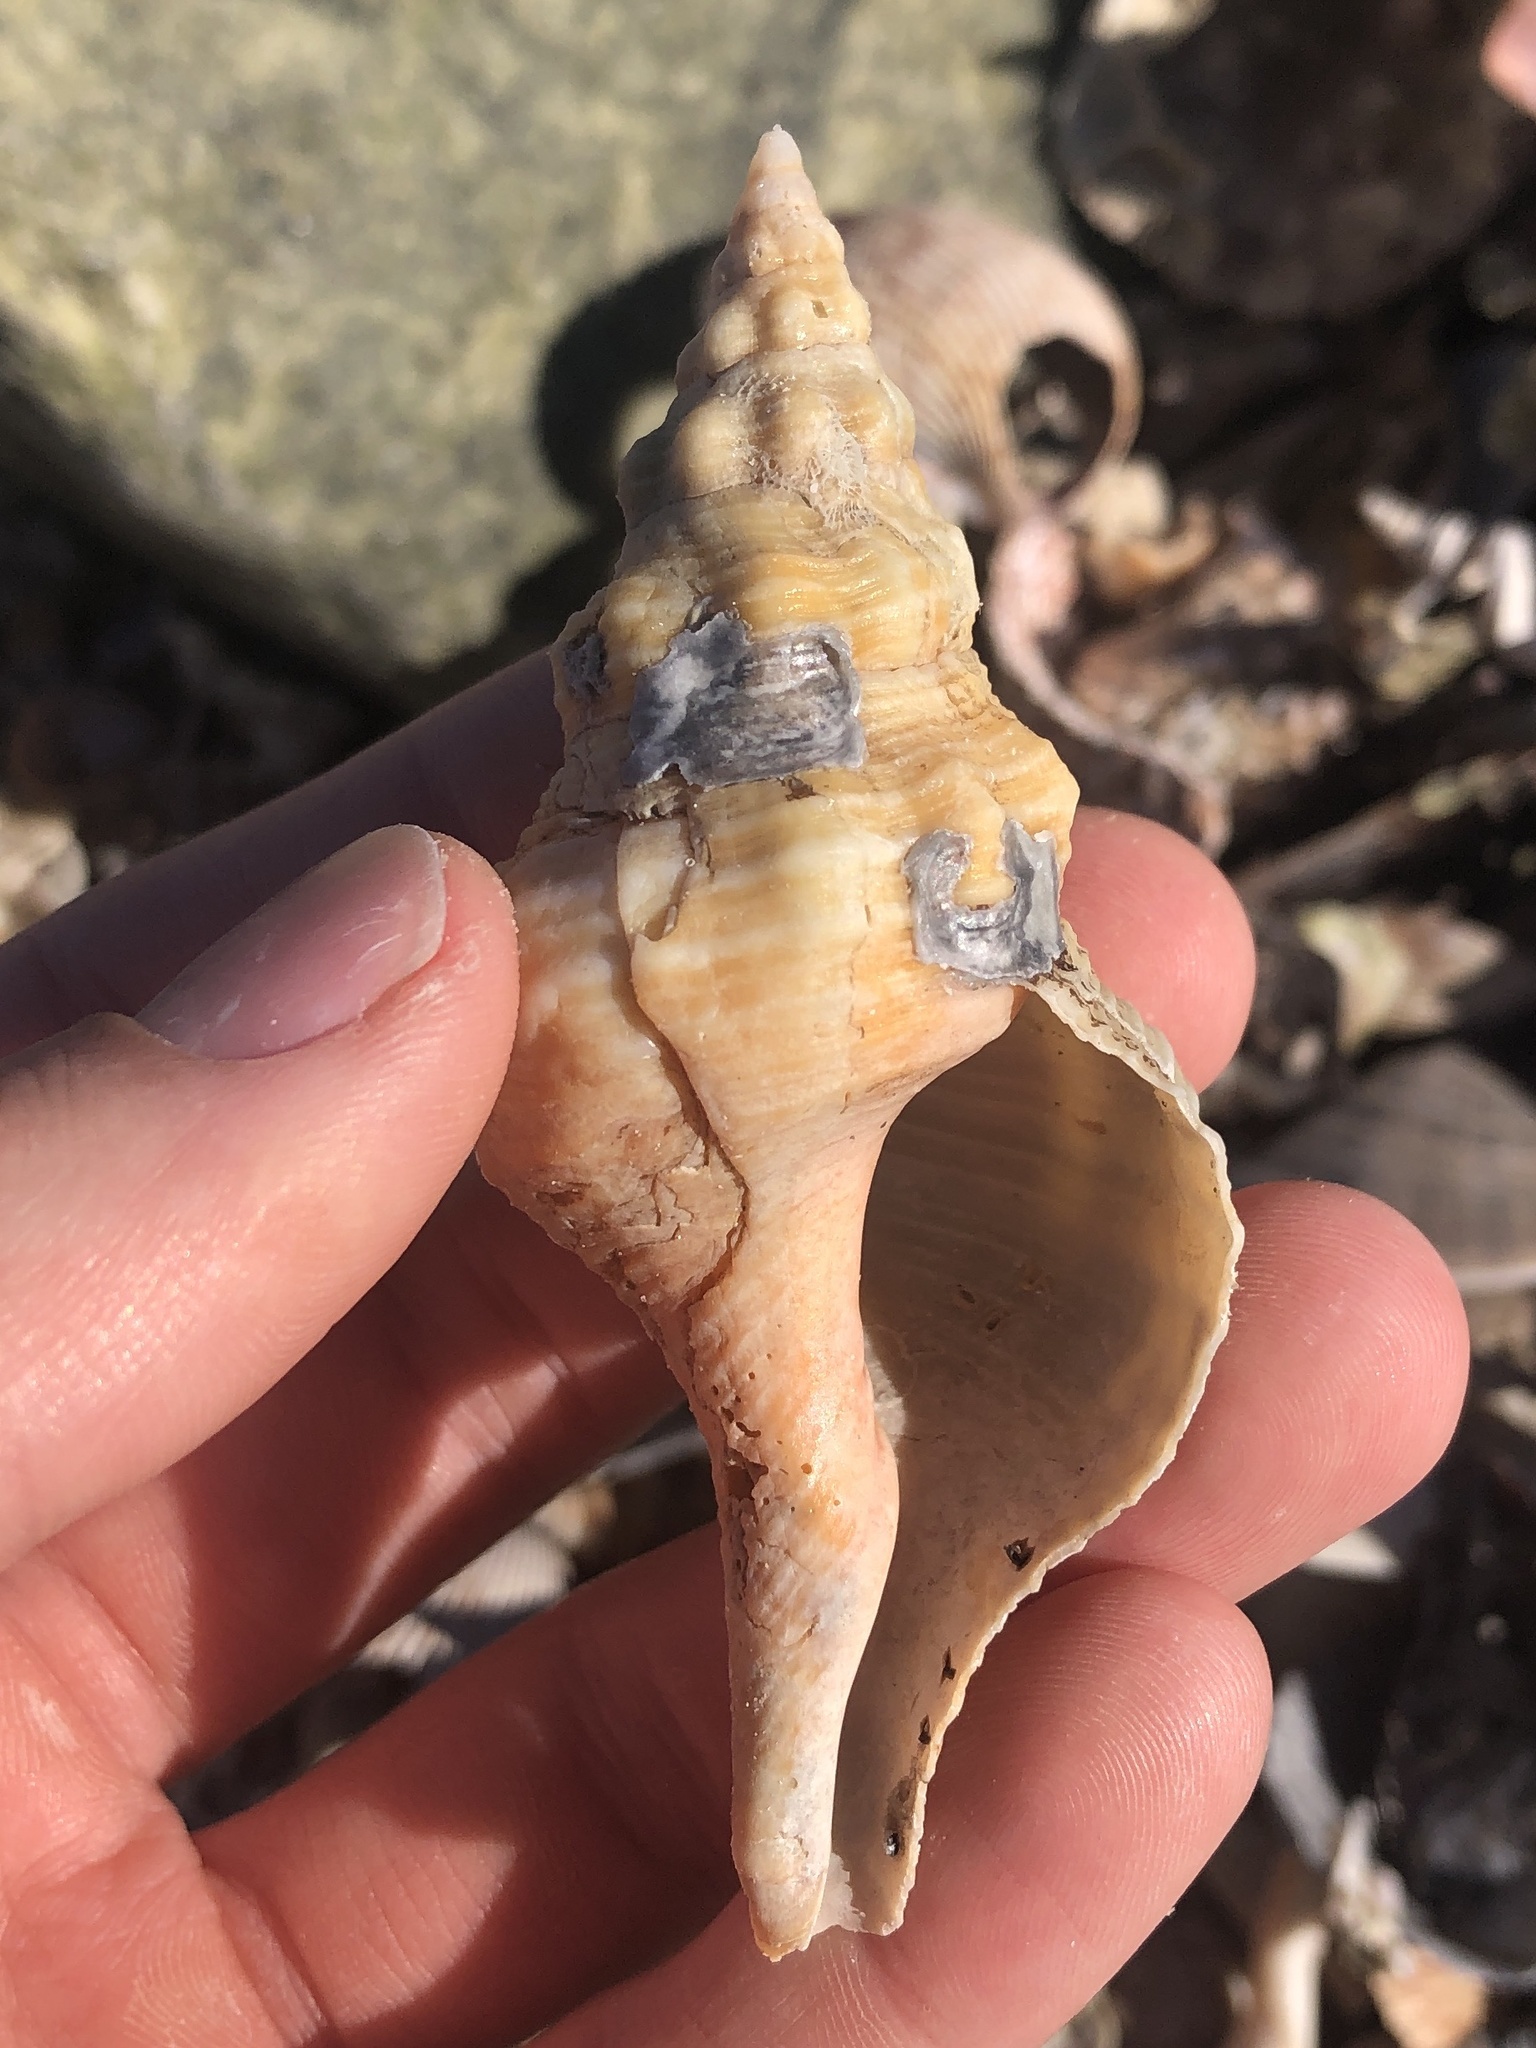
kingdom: Animalia
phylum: Mollusca
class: Gastropoda
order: Neogastropoda
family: Fasciolariidae
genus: Triplofusus
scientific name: Triplofusus giganteus
